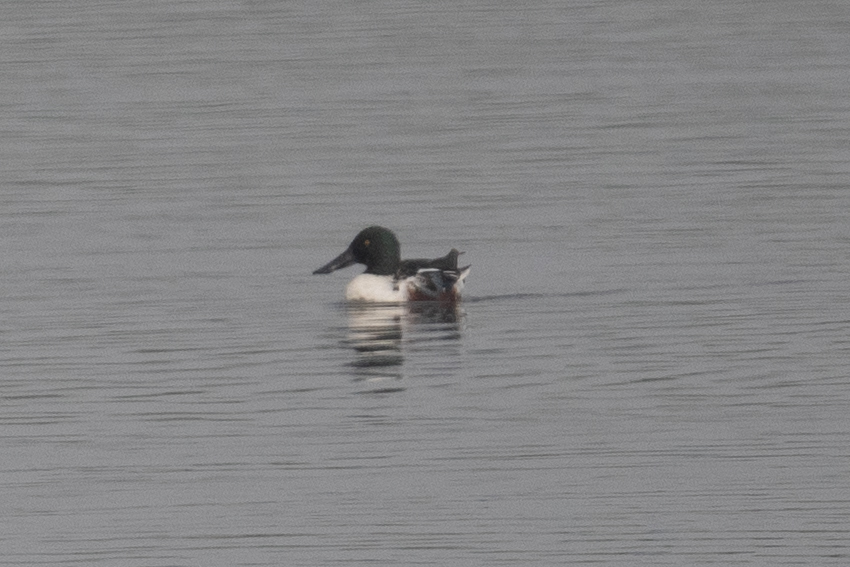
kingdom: Animalia
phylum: Chordata
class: Aves
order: Anseriformes
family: Anatidae
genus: Spatula
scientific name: Spatula clypeata
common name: Northern shoveler
